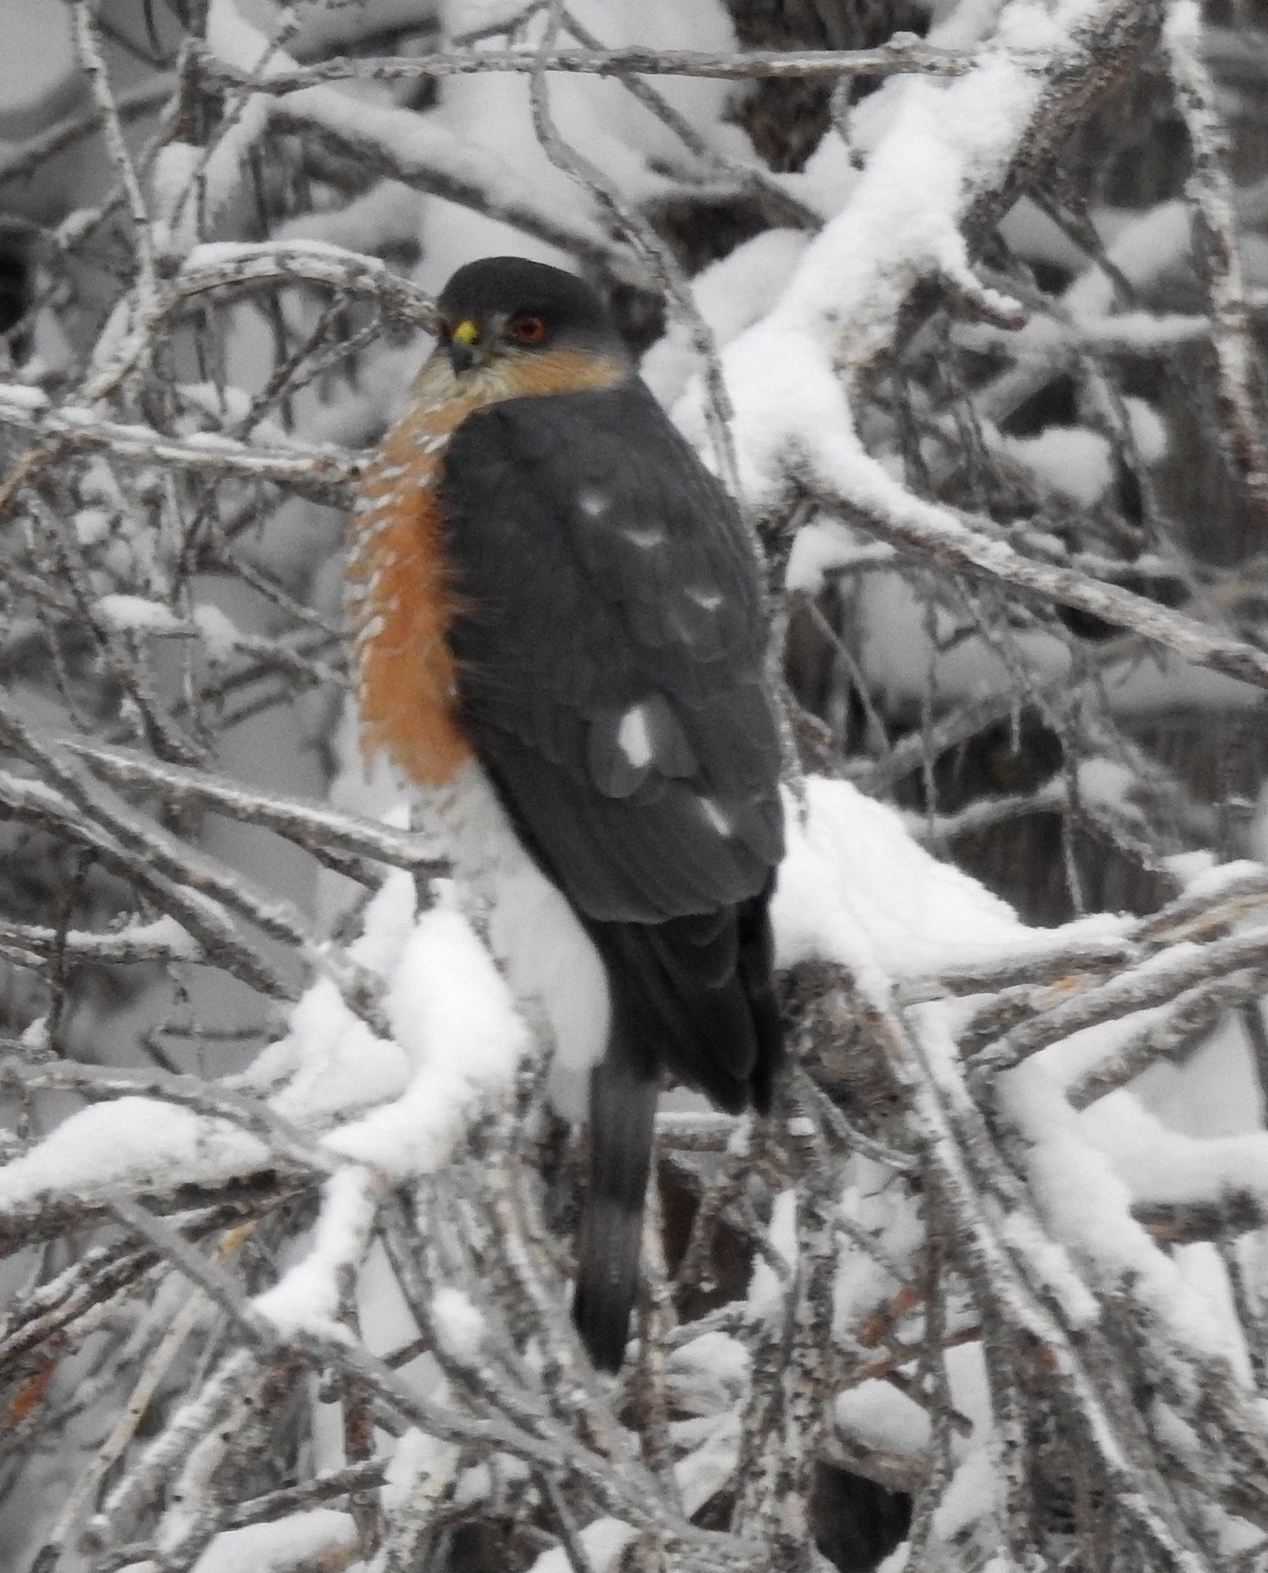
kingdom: Animalia
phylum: Chordata
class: Aves
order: Accipitriformes
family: Accipitridae
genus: Accipiter
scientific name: Accipiter striatus
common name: Sharp-shinned hawk
